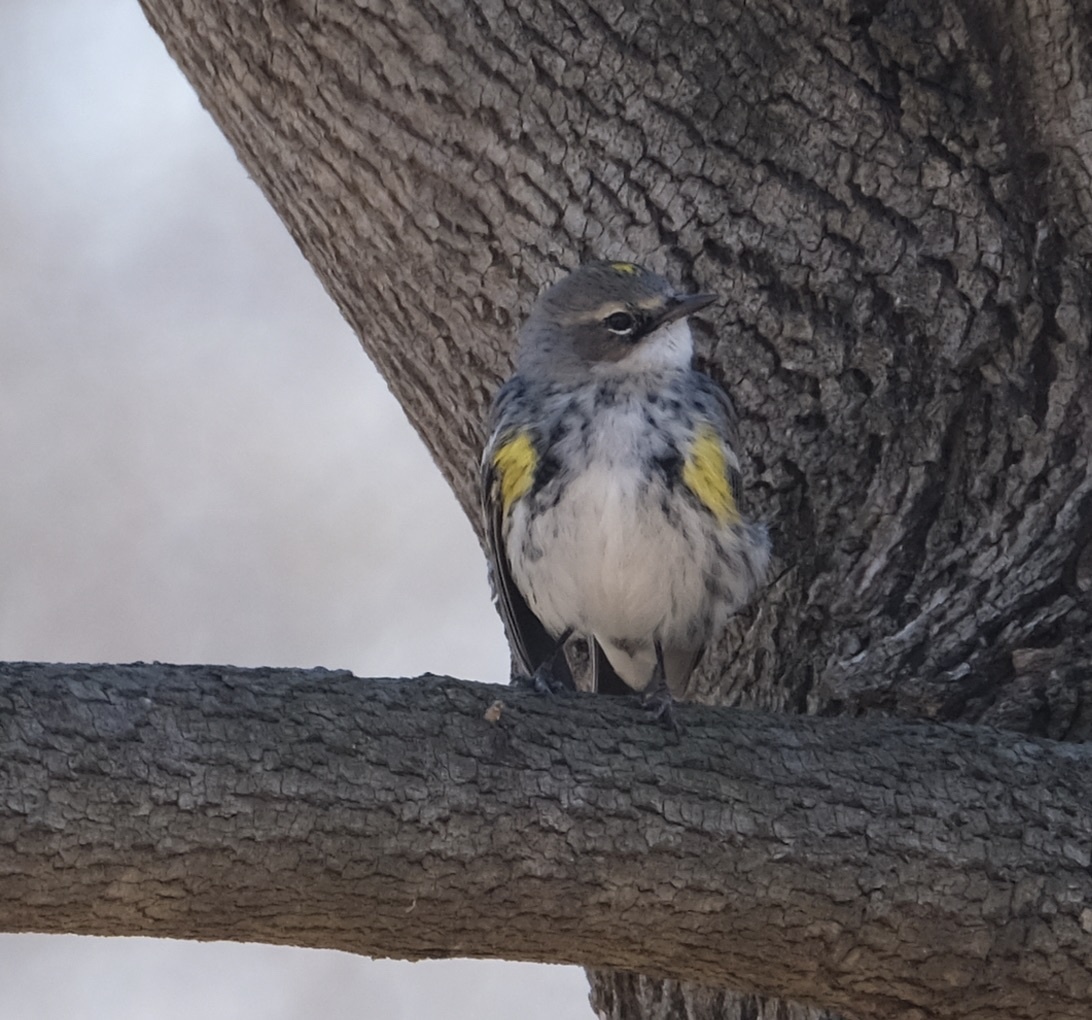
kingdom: Animalia
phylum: Chordata
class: Aves
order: Passeriformes
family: Parulidae
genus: Setophaga
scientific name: Setophaga coronata
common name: Myrtle warbler
